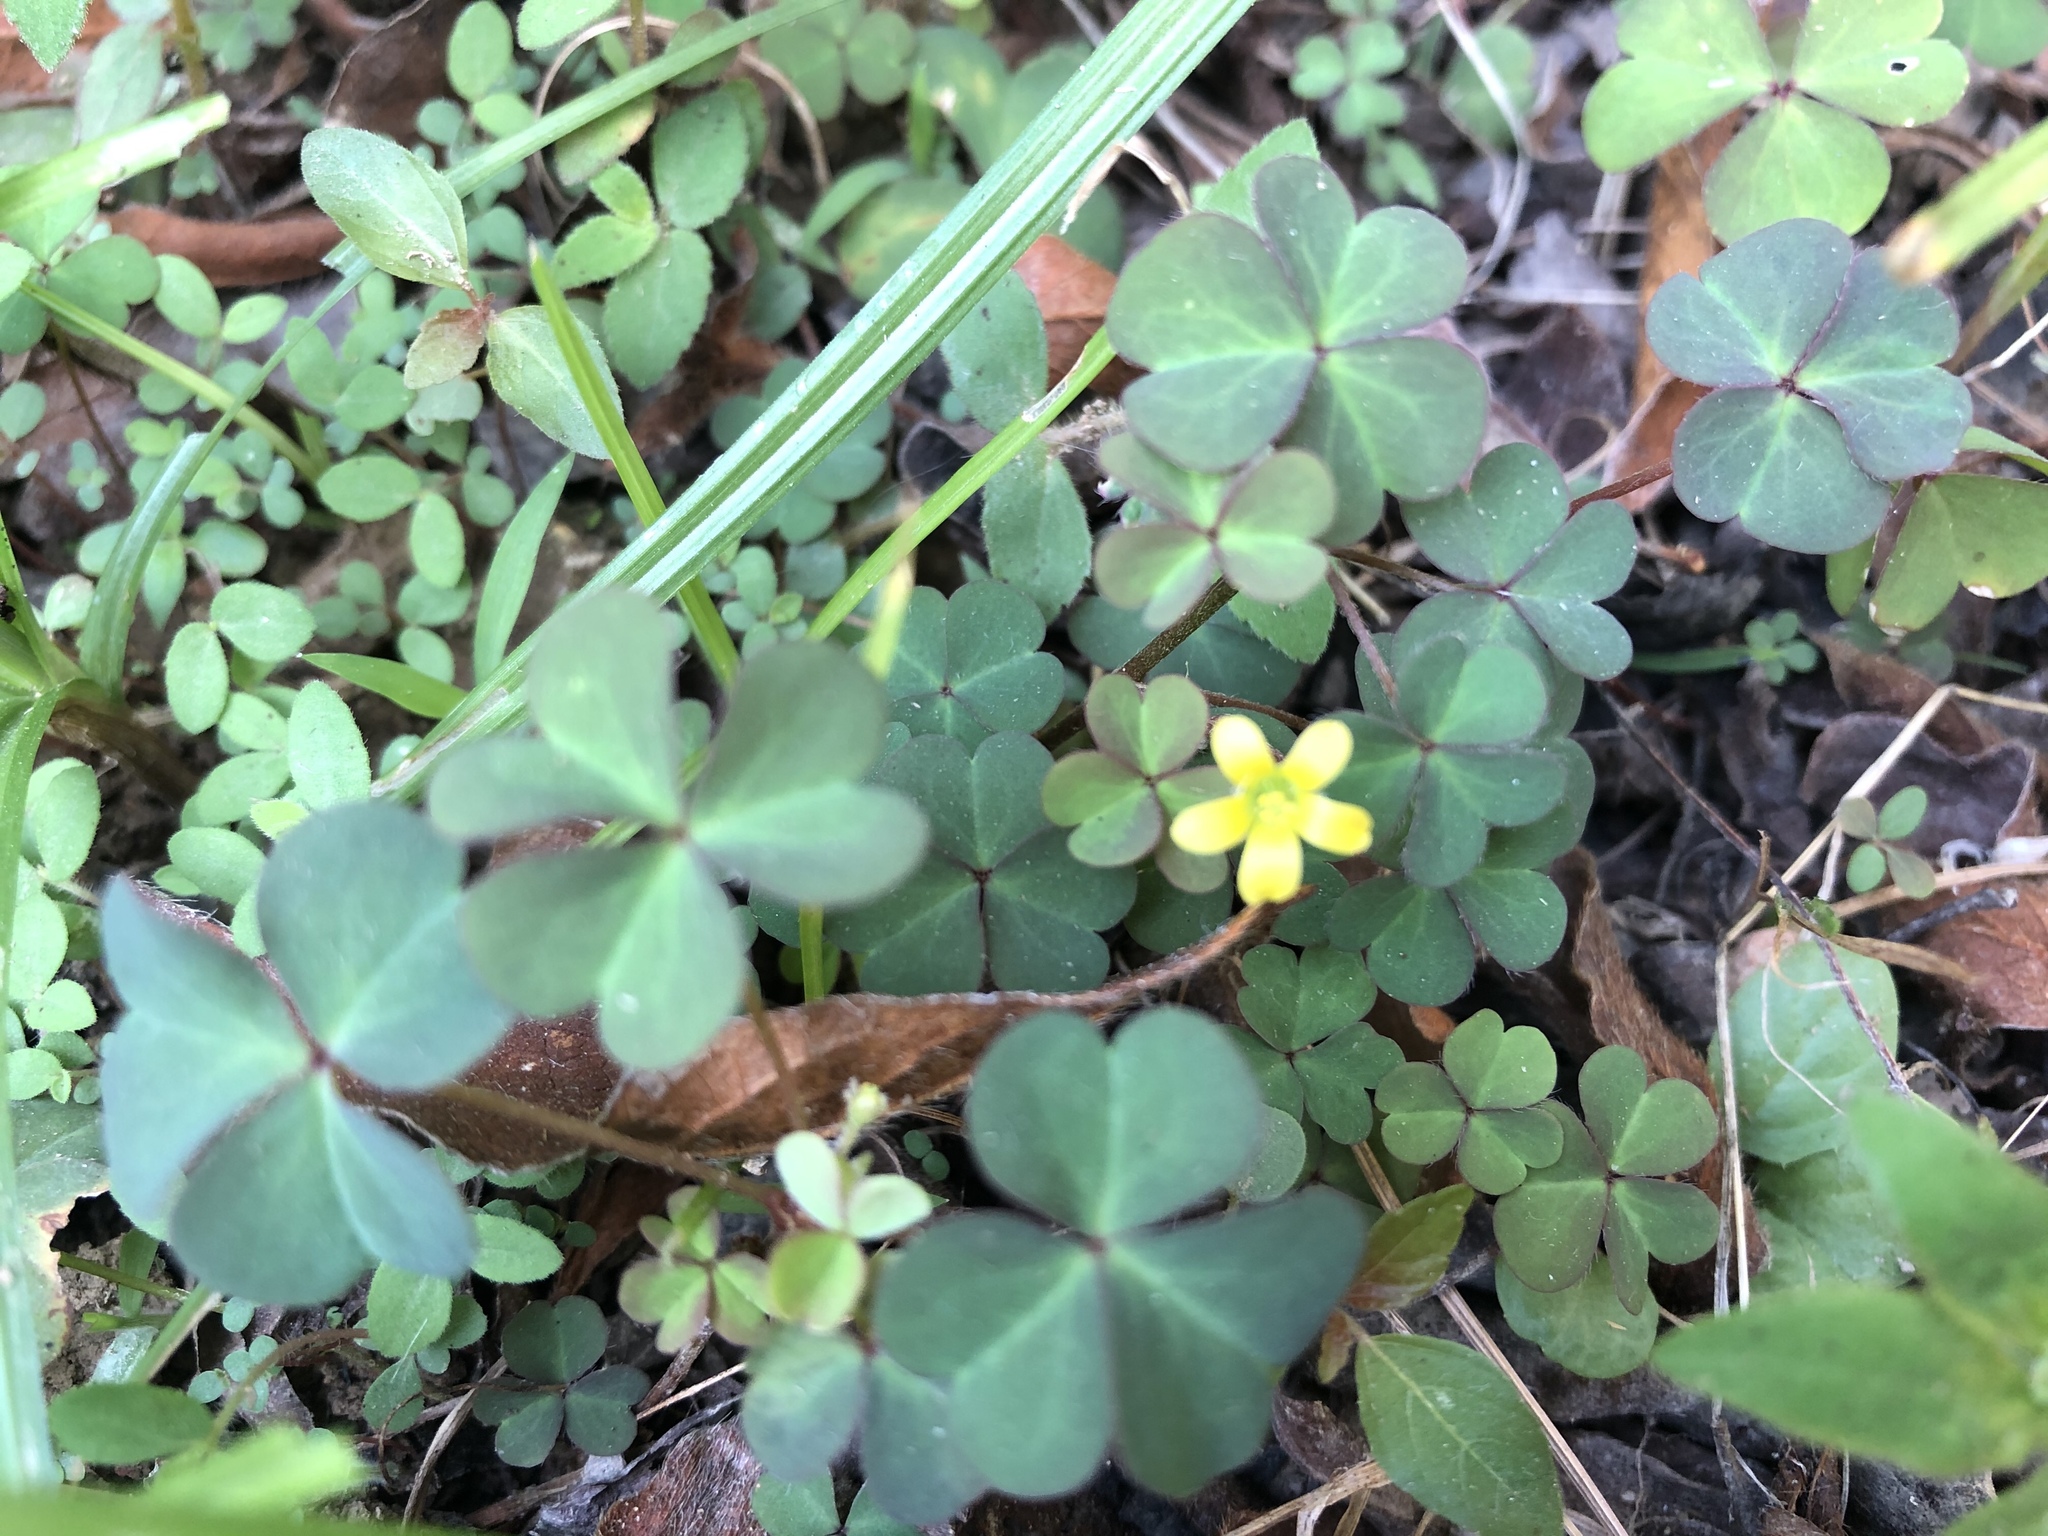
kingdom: Plantae
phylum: Tracheophyta
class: Magnoliopsida
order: Oxalidales
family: Oxalidaceae
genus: Oxalis
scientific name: Oxalis corniculata
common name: Procumbent yellow-sorrel
